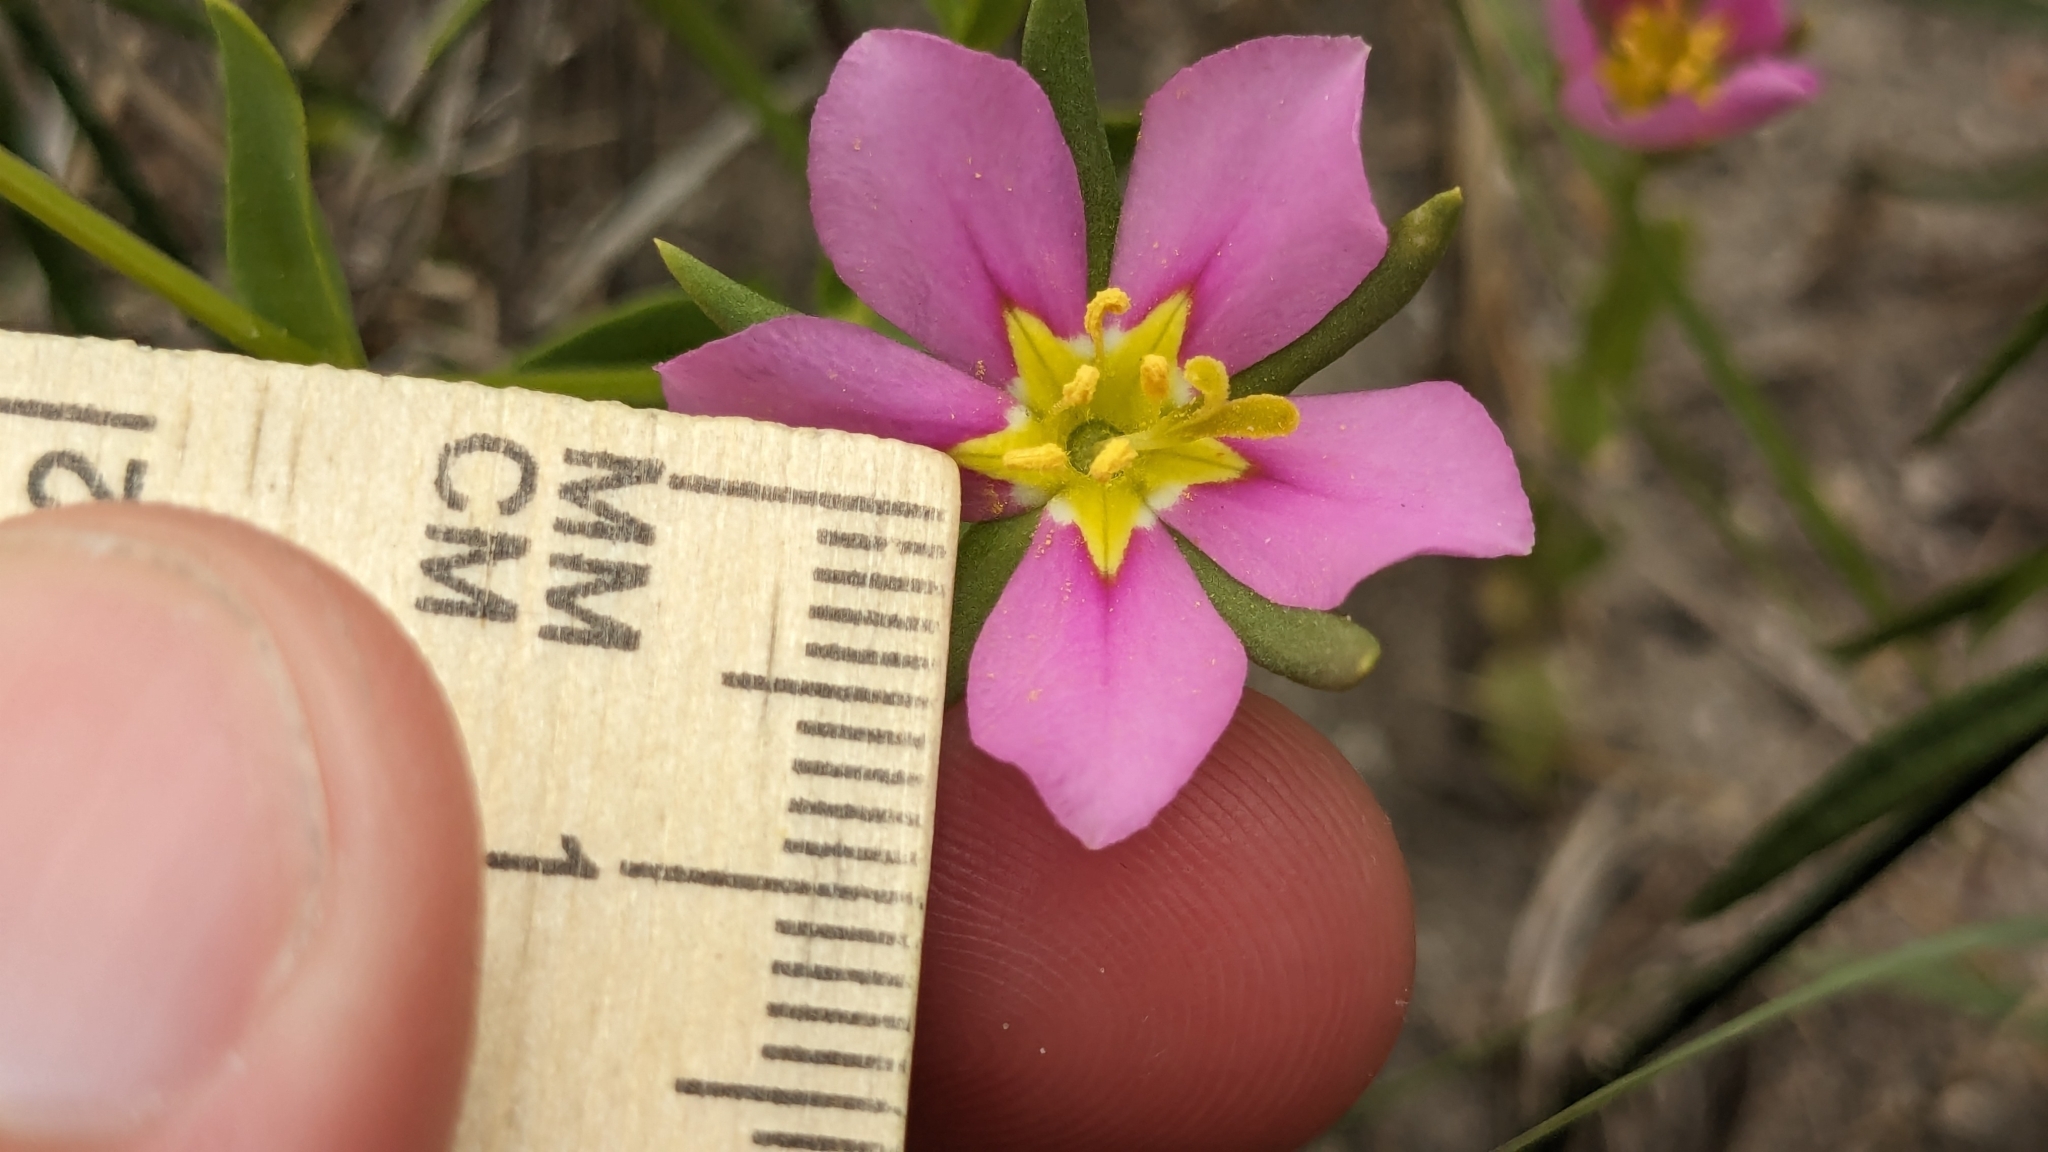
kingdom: Plantae
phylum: Tracheophyta
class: Magnoliopsida
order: Gentianales
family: Gentianaceae
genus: Sabatia
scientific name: Sabatia arenicola
